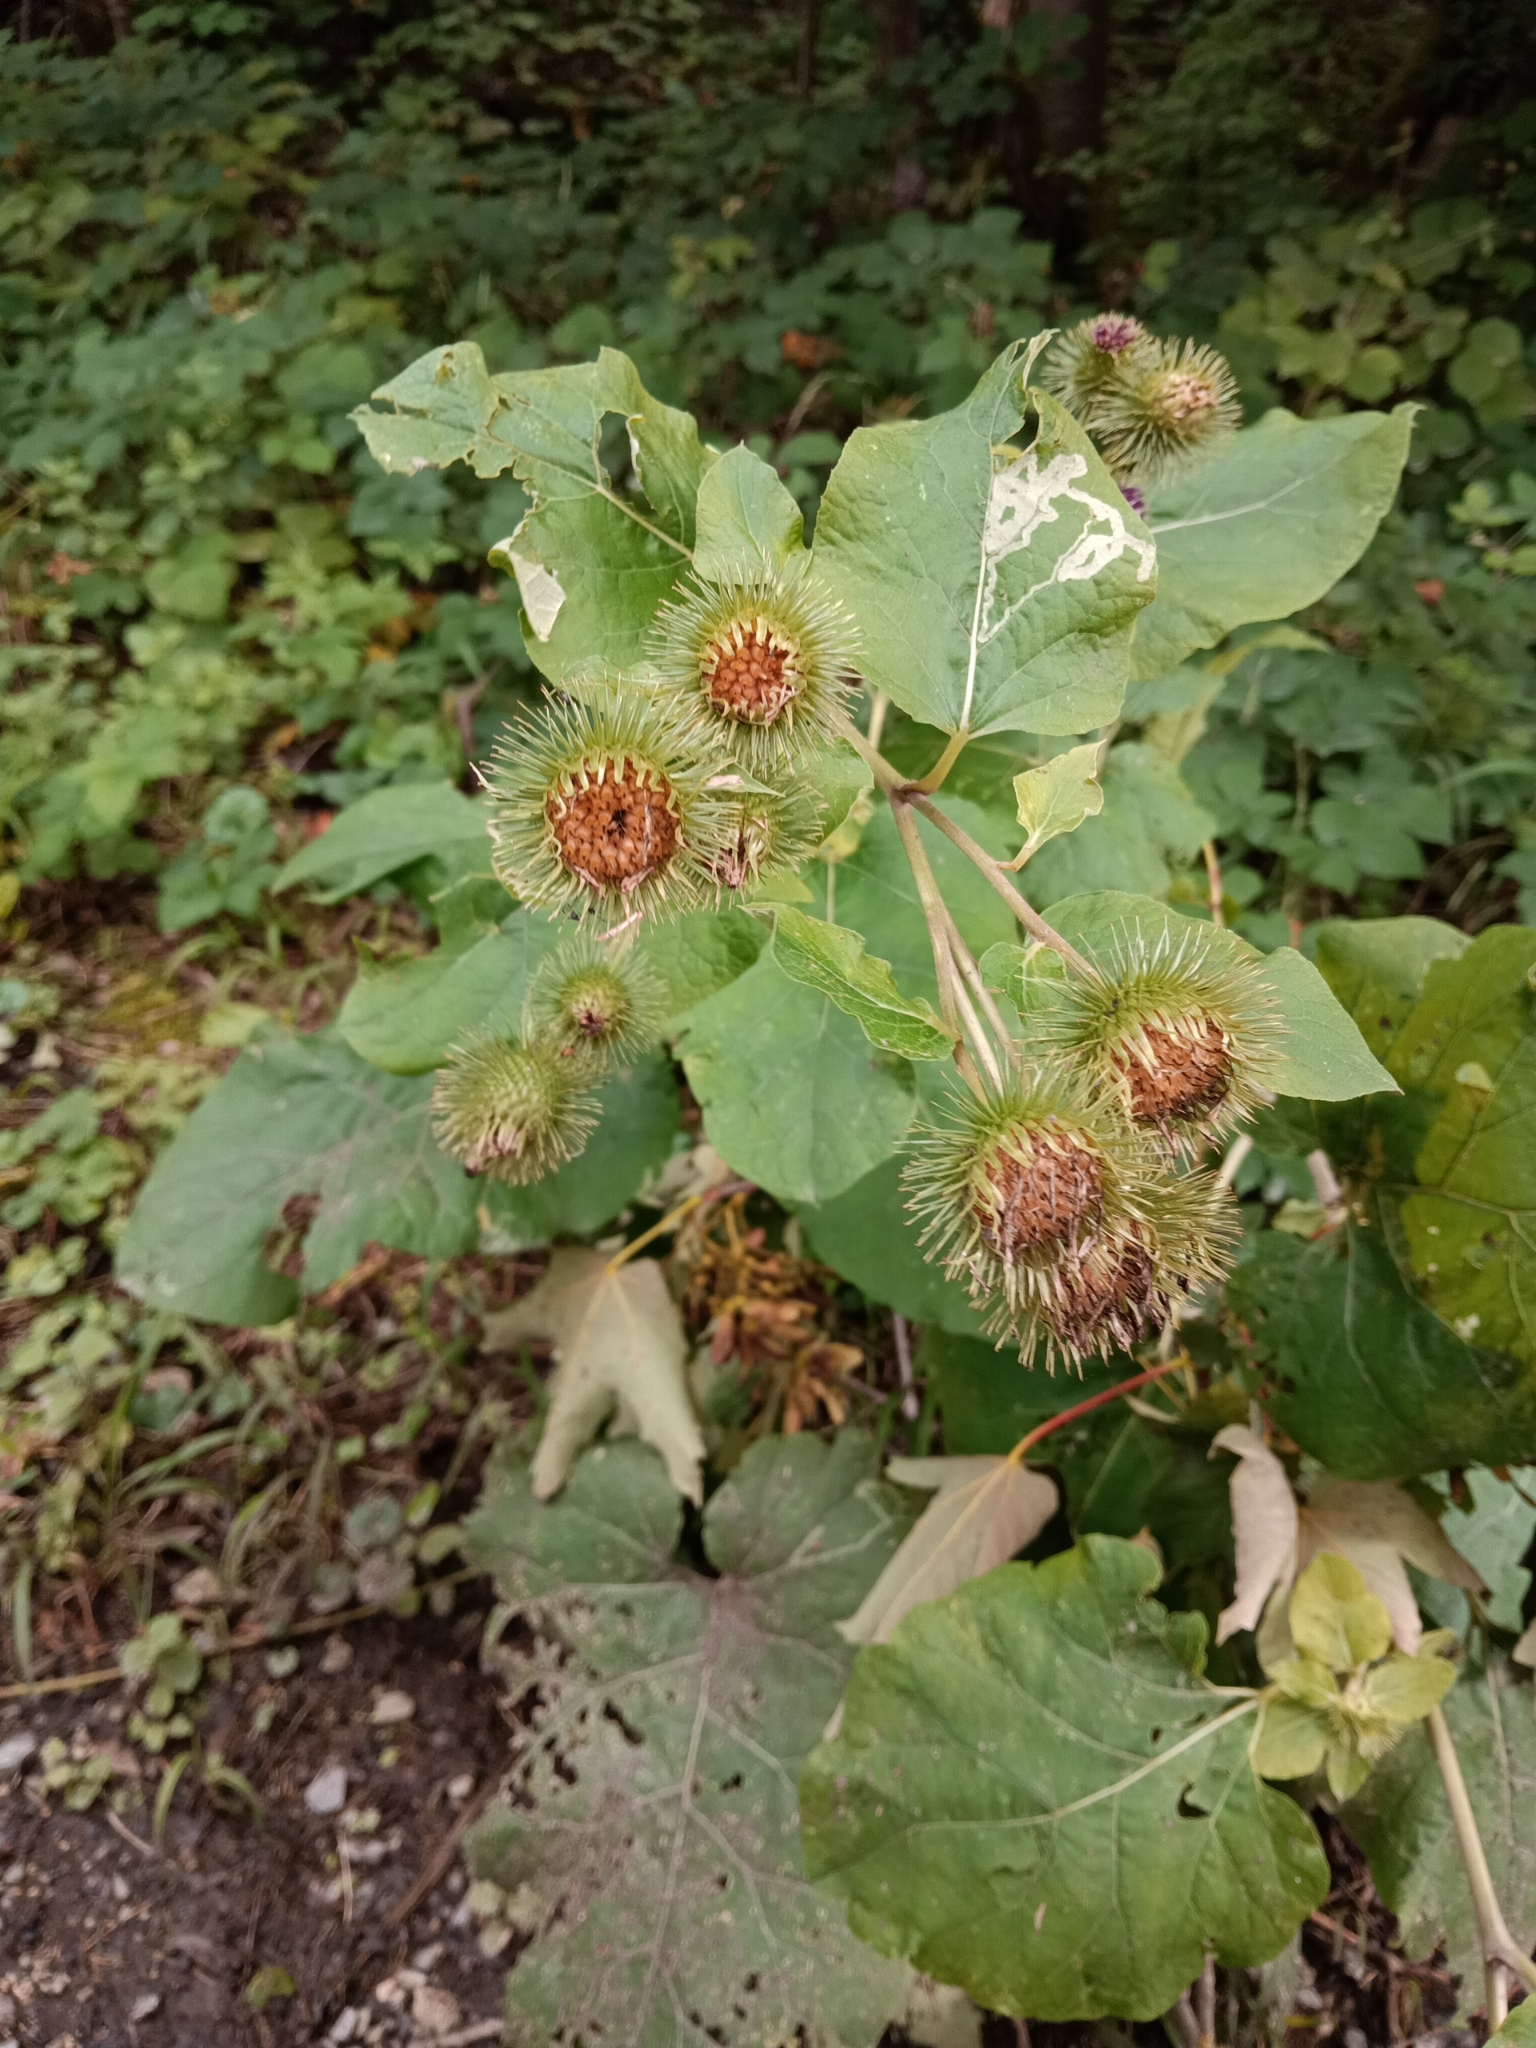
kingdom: Plantae
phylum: Tracheophyta
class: Magnoliopsida
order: Asterales
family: Asteraceae
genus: Arctium
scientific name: Arctium lappa
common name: Greater burdock
